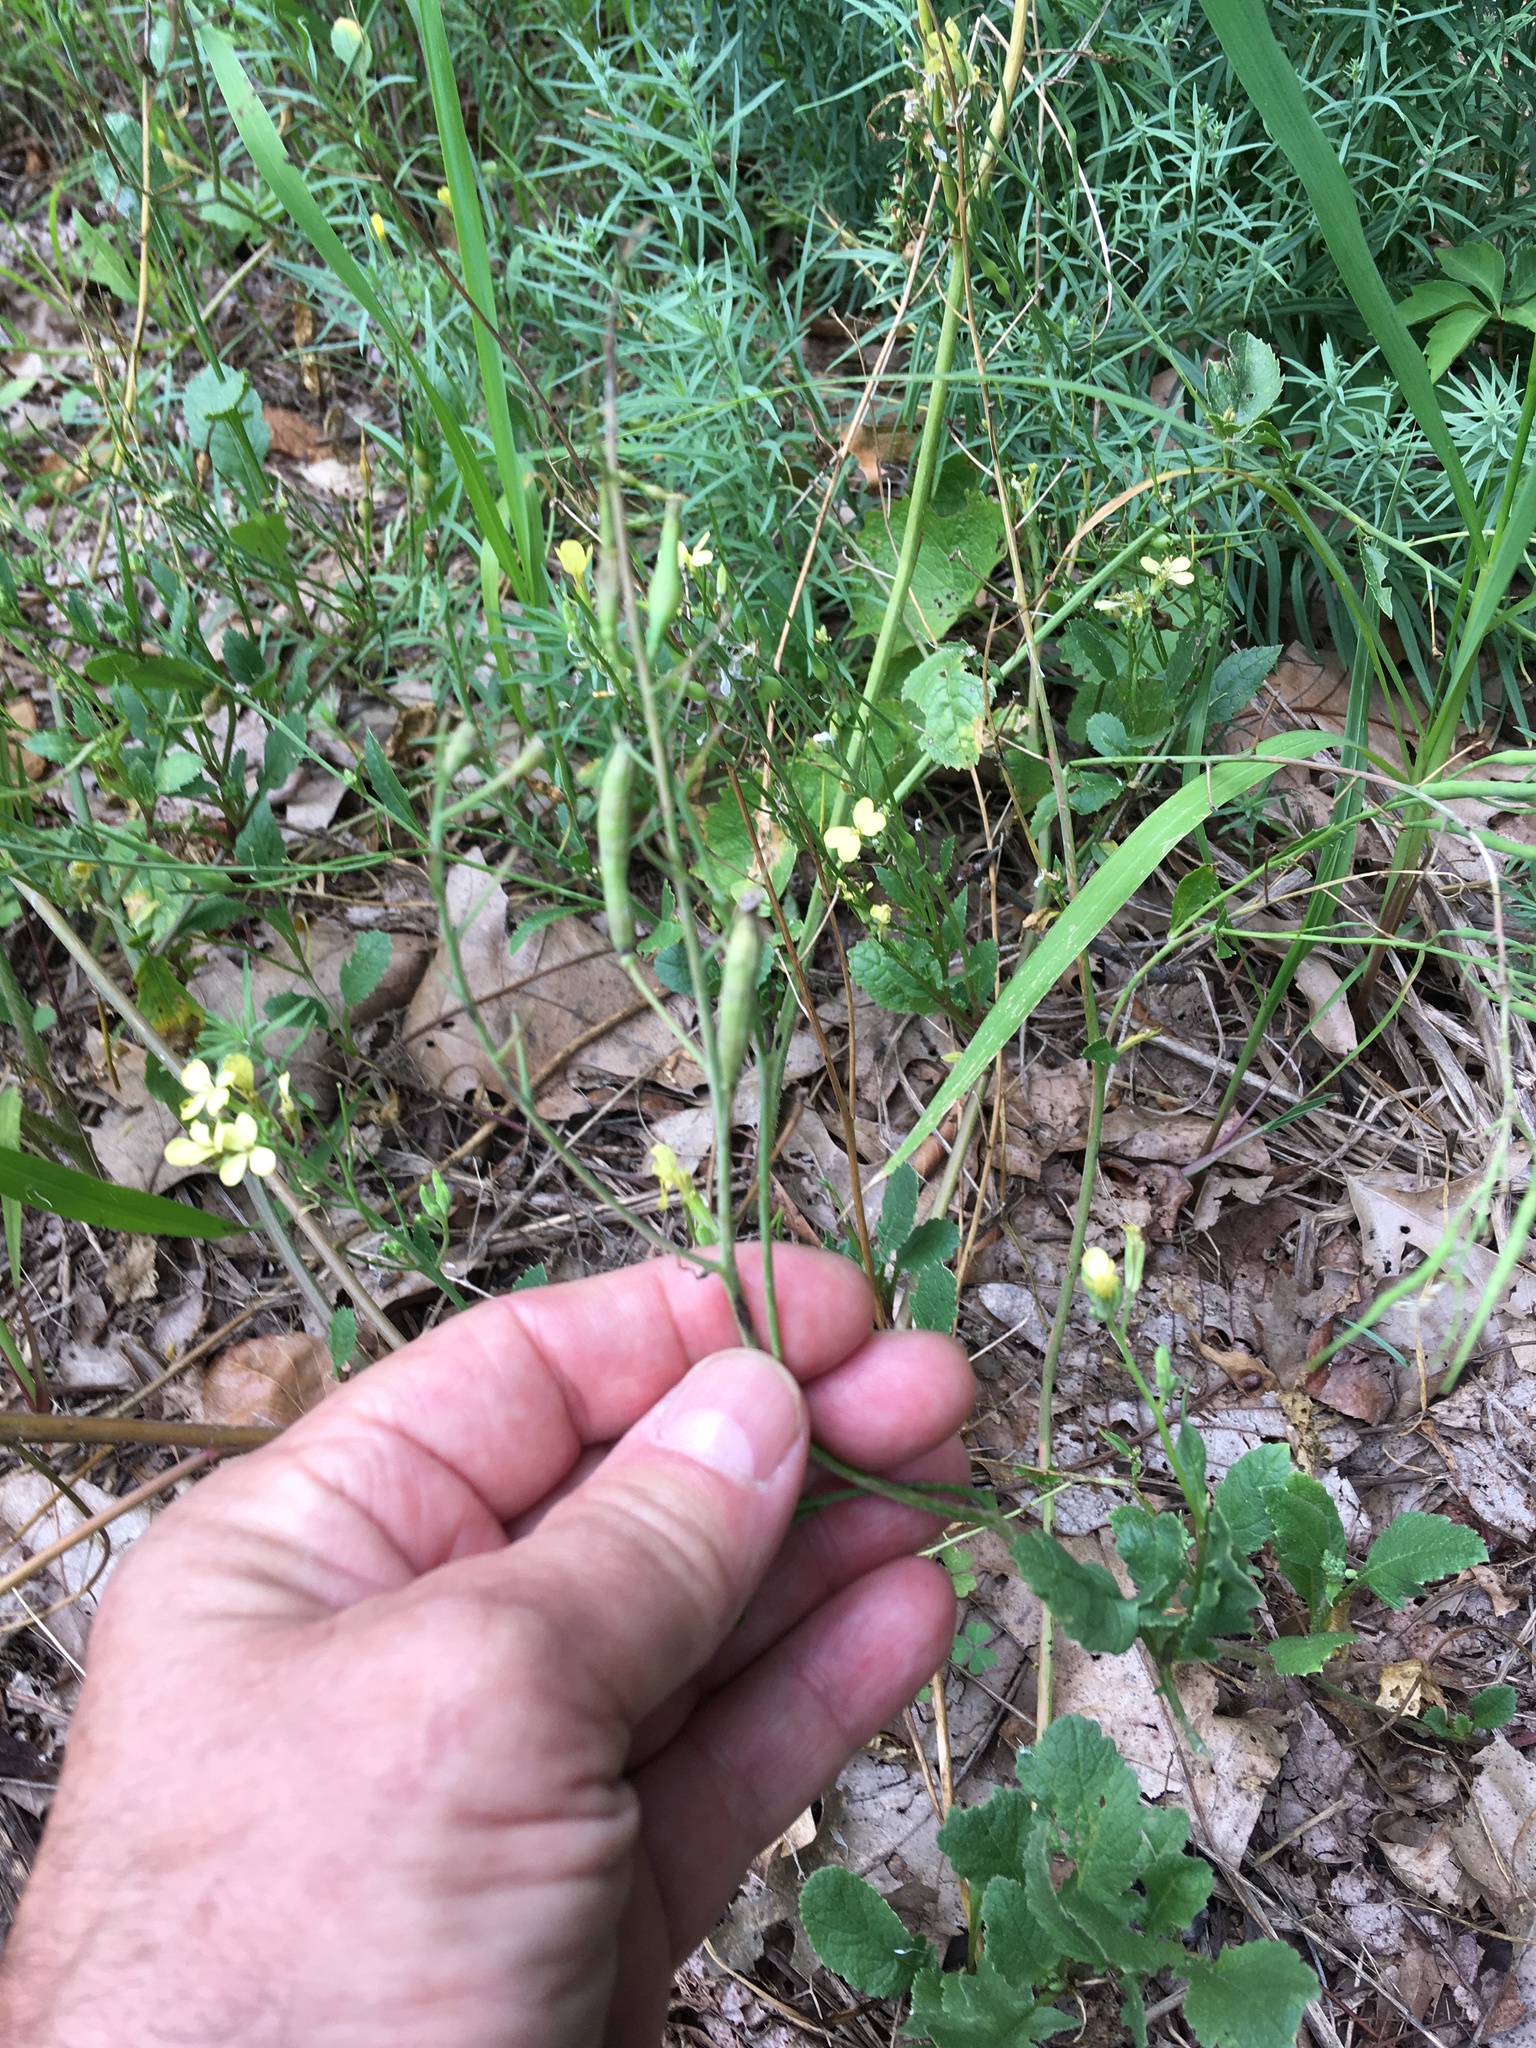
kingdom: Plantae
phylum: Tracheophyta
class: Magnoliopsida
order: Brassicales
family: Brassicaceae
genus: Raphanus
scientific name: Raphanus raphanistrum
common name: Wild radish
